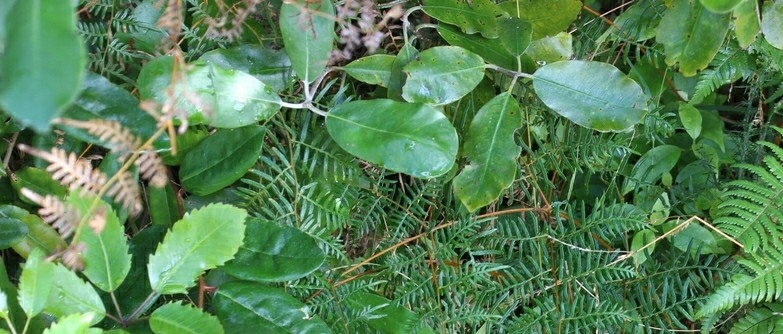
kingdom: Plantae
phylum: Tracheophyta
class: Magnoliopsida
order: Apiales
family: Pittosporaceae
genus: Pittosporum
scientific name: Pittosporum ralphii
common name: Ralph's desertwillow
